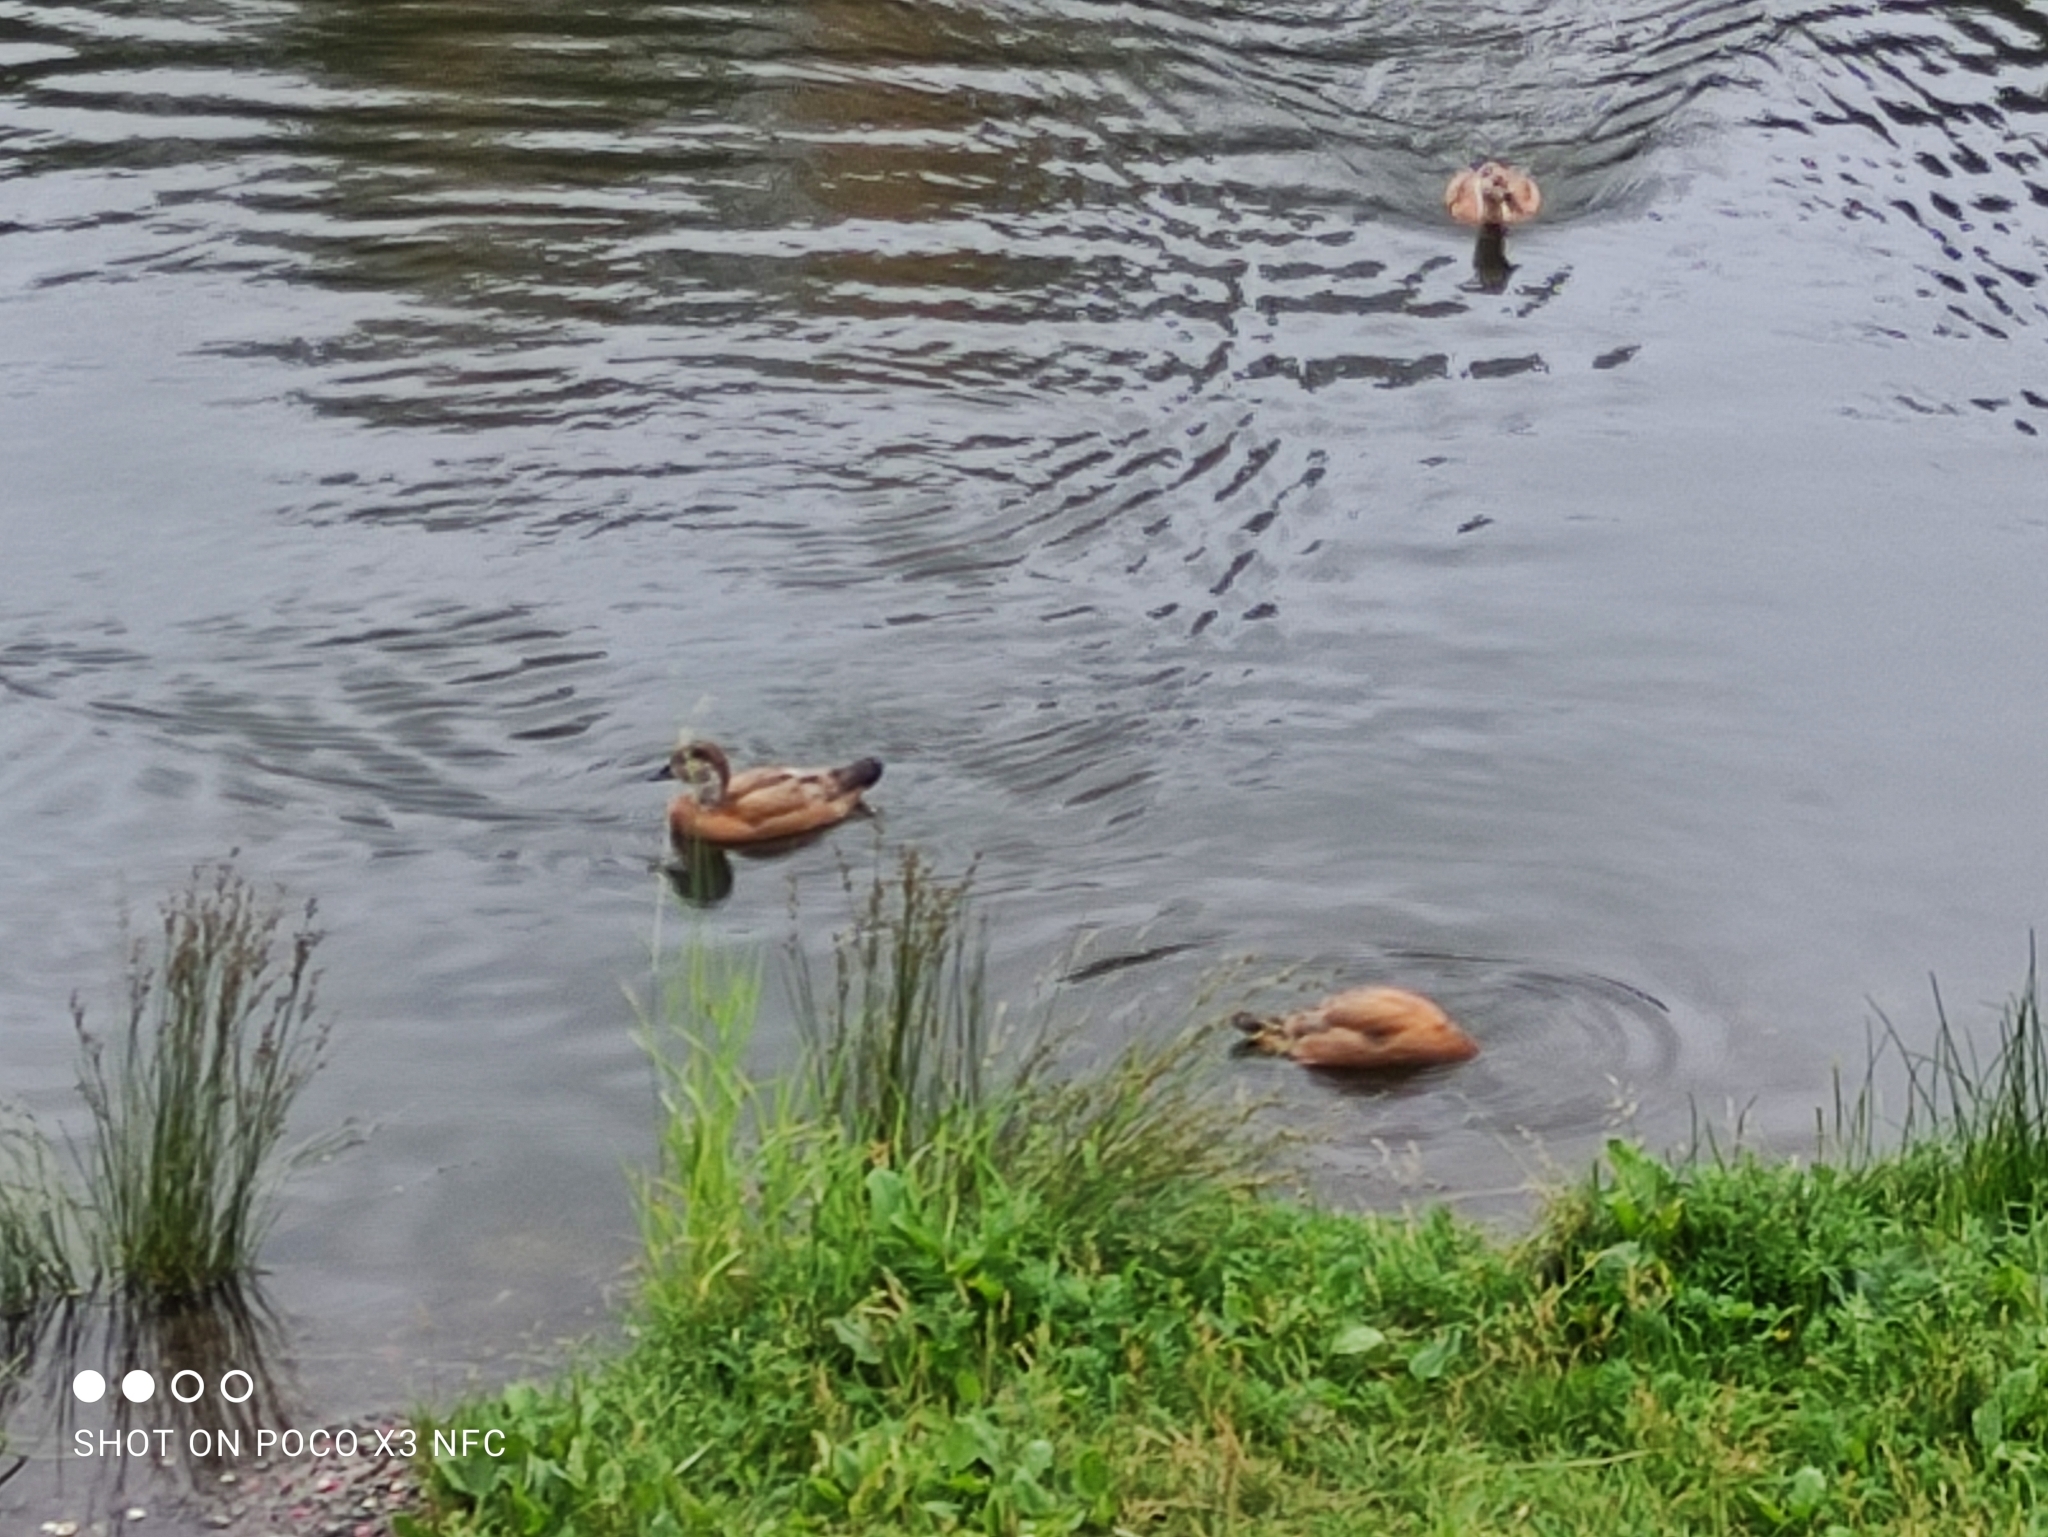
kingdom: Animalia
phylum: Chordata
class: Aves
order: Anseriformes
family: Anatidae
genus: Tadorna
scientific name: Tadorna ferruginea
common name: Ruddy shelduck
